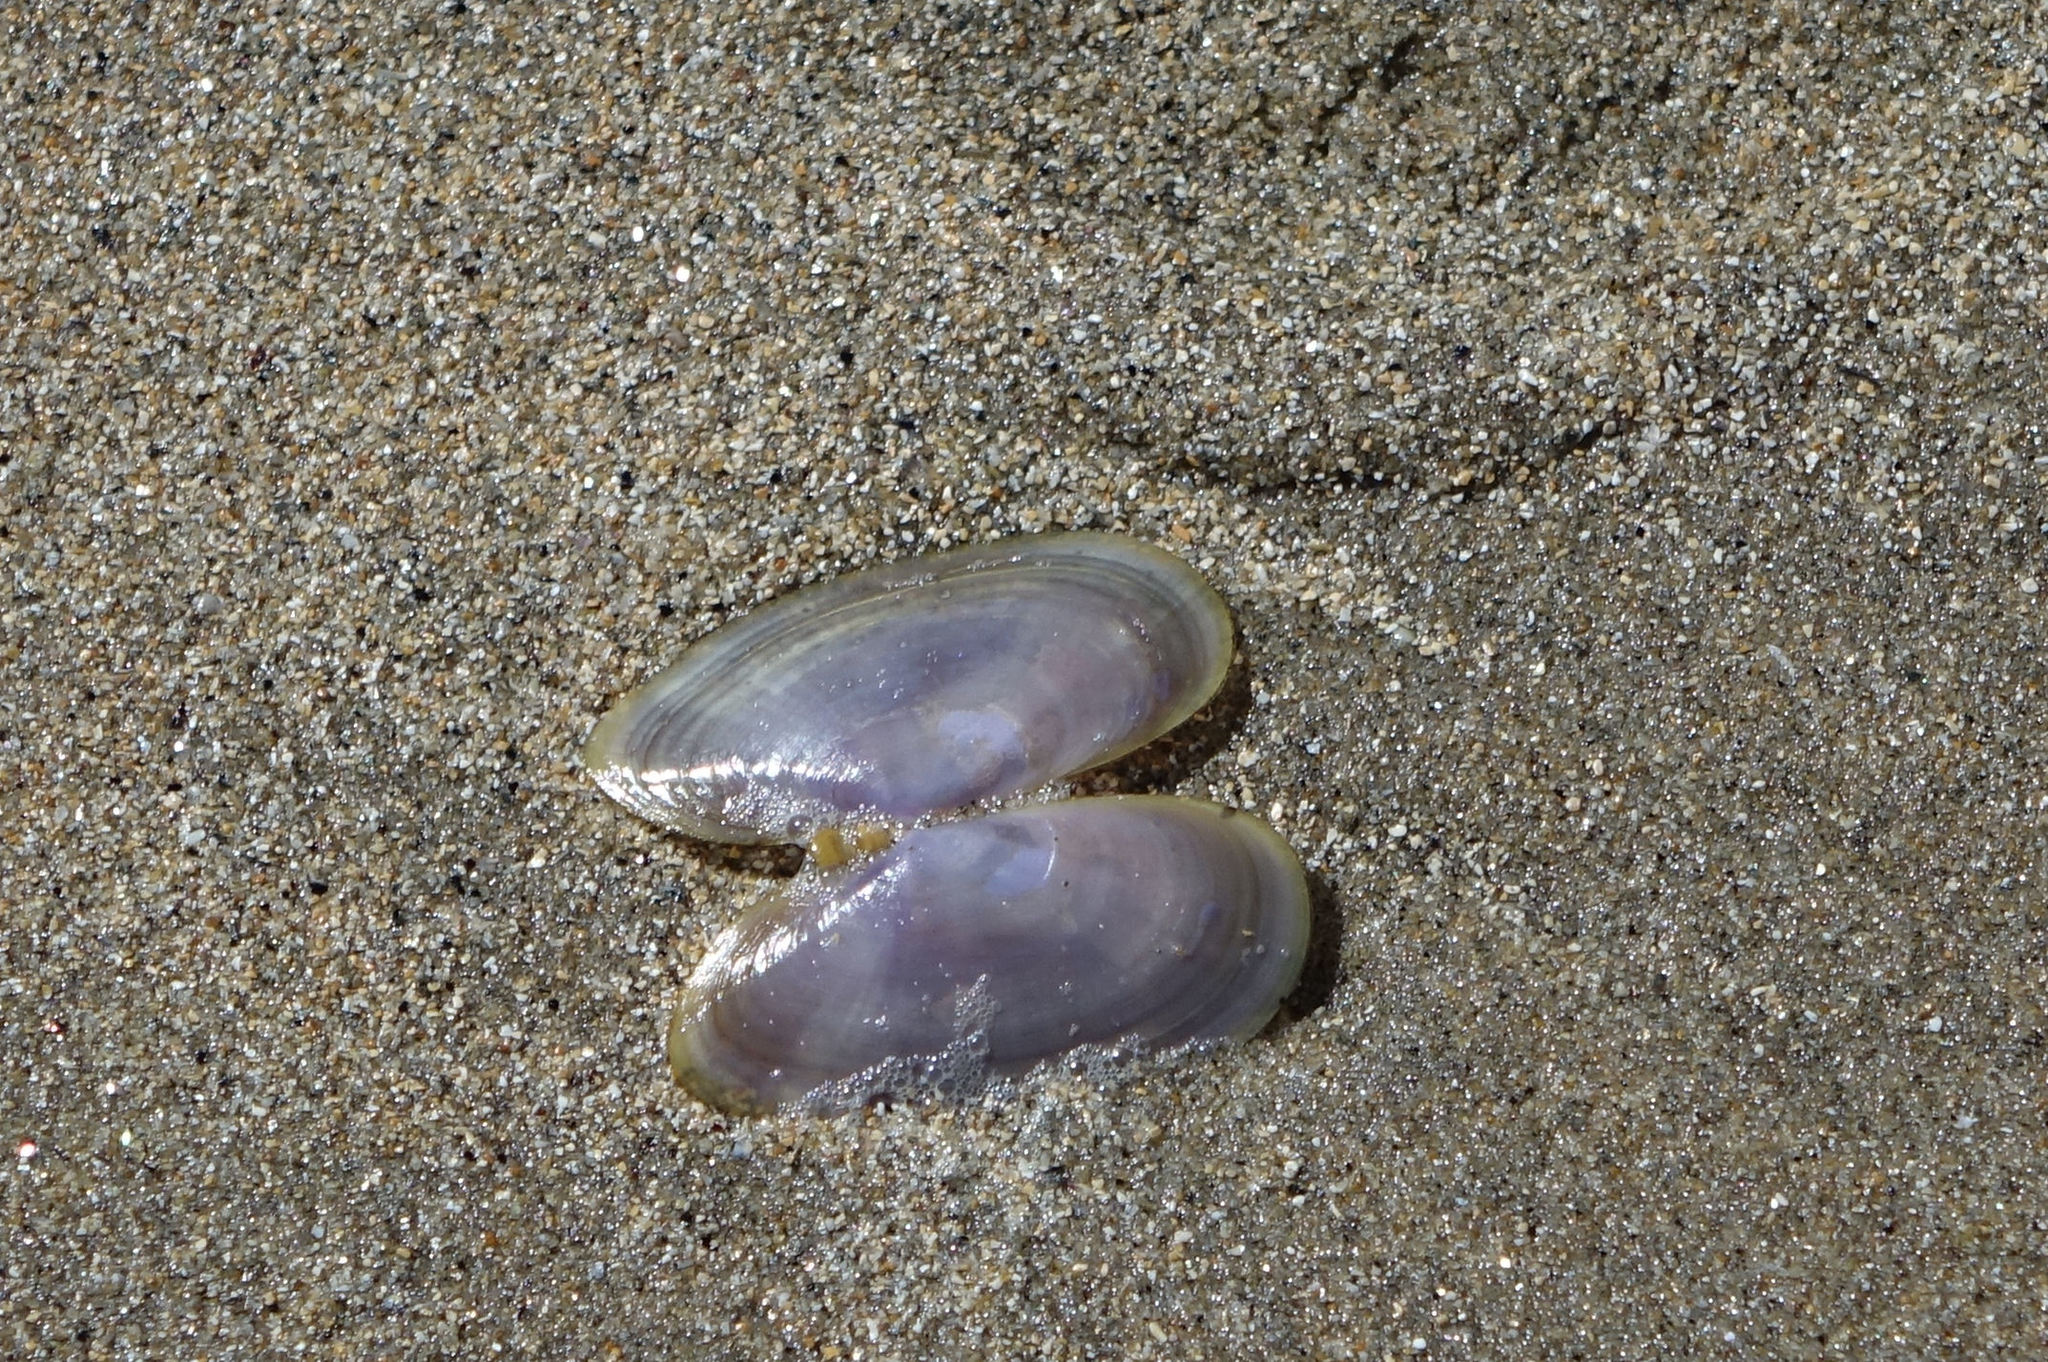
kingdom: Animalia
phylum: Mollusca
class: Bivalvia
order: Cardiida
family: Psammobiidae
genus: Hiatula
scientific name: Hiatula nitida
